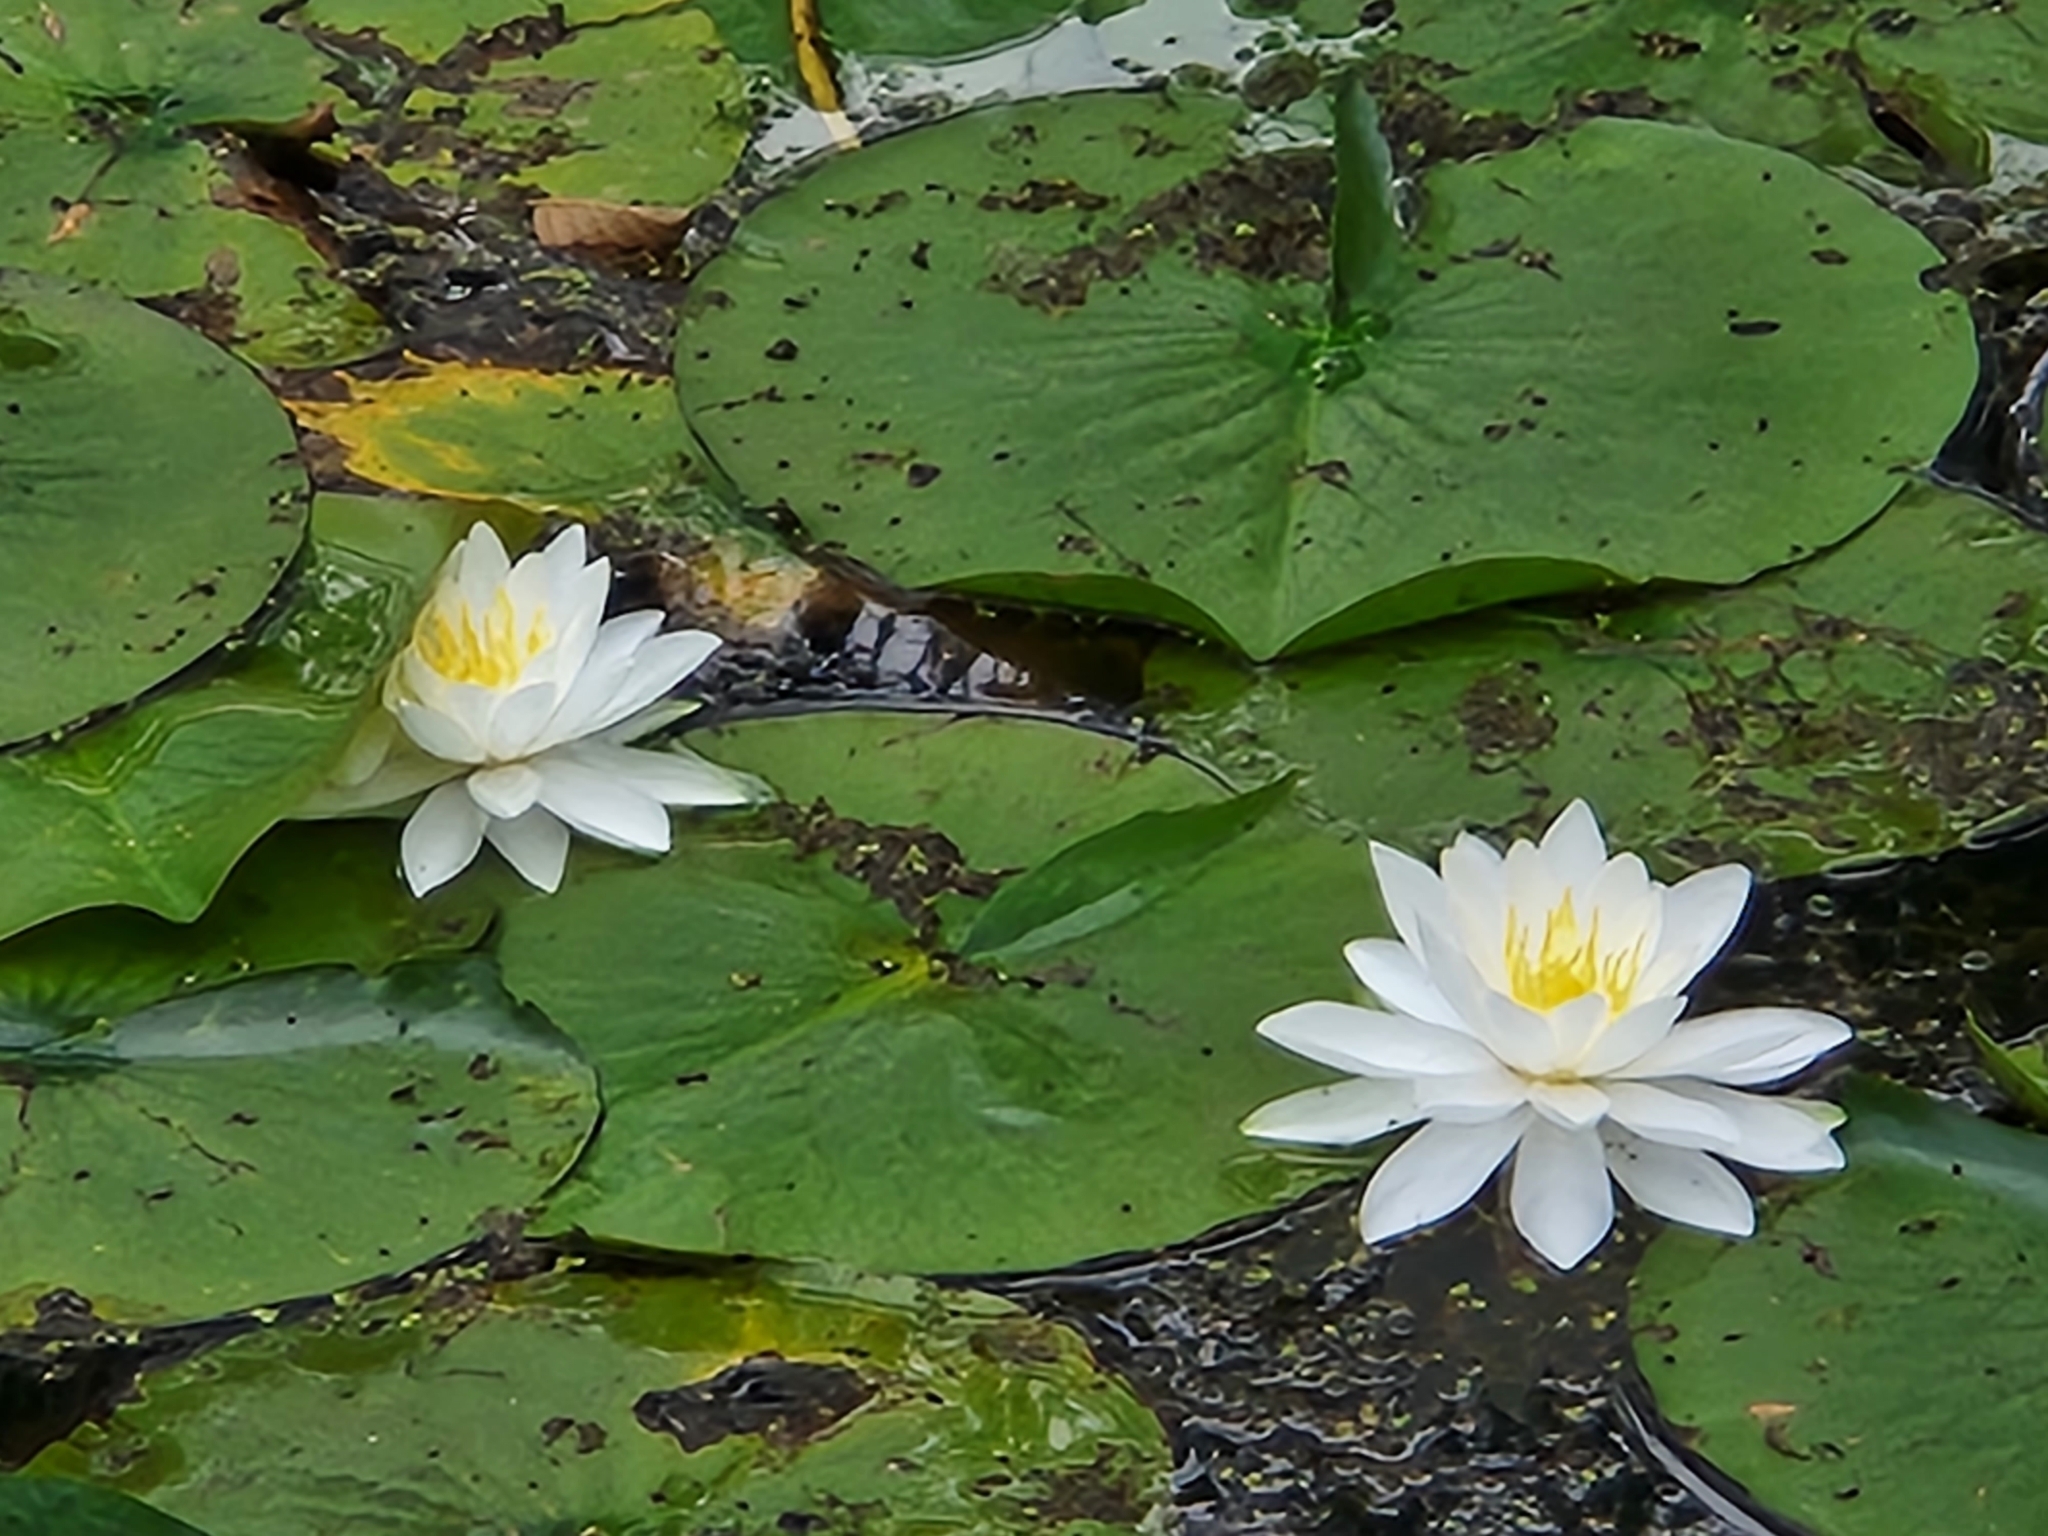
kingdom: Plantae
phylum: Tracheophyta
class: Magnoliopsida
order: Nymphaeales
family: Nymphaeaceae
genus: Nymphaea
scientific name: Nymphaea odorata
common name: Fragrant water-lily
